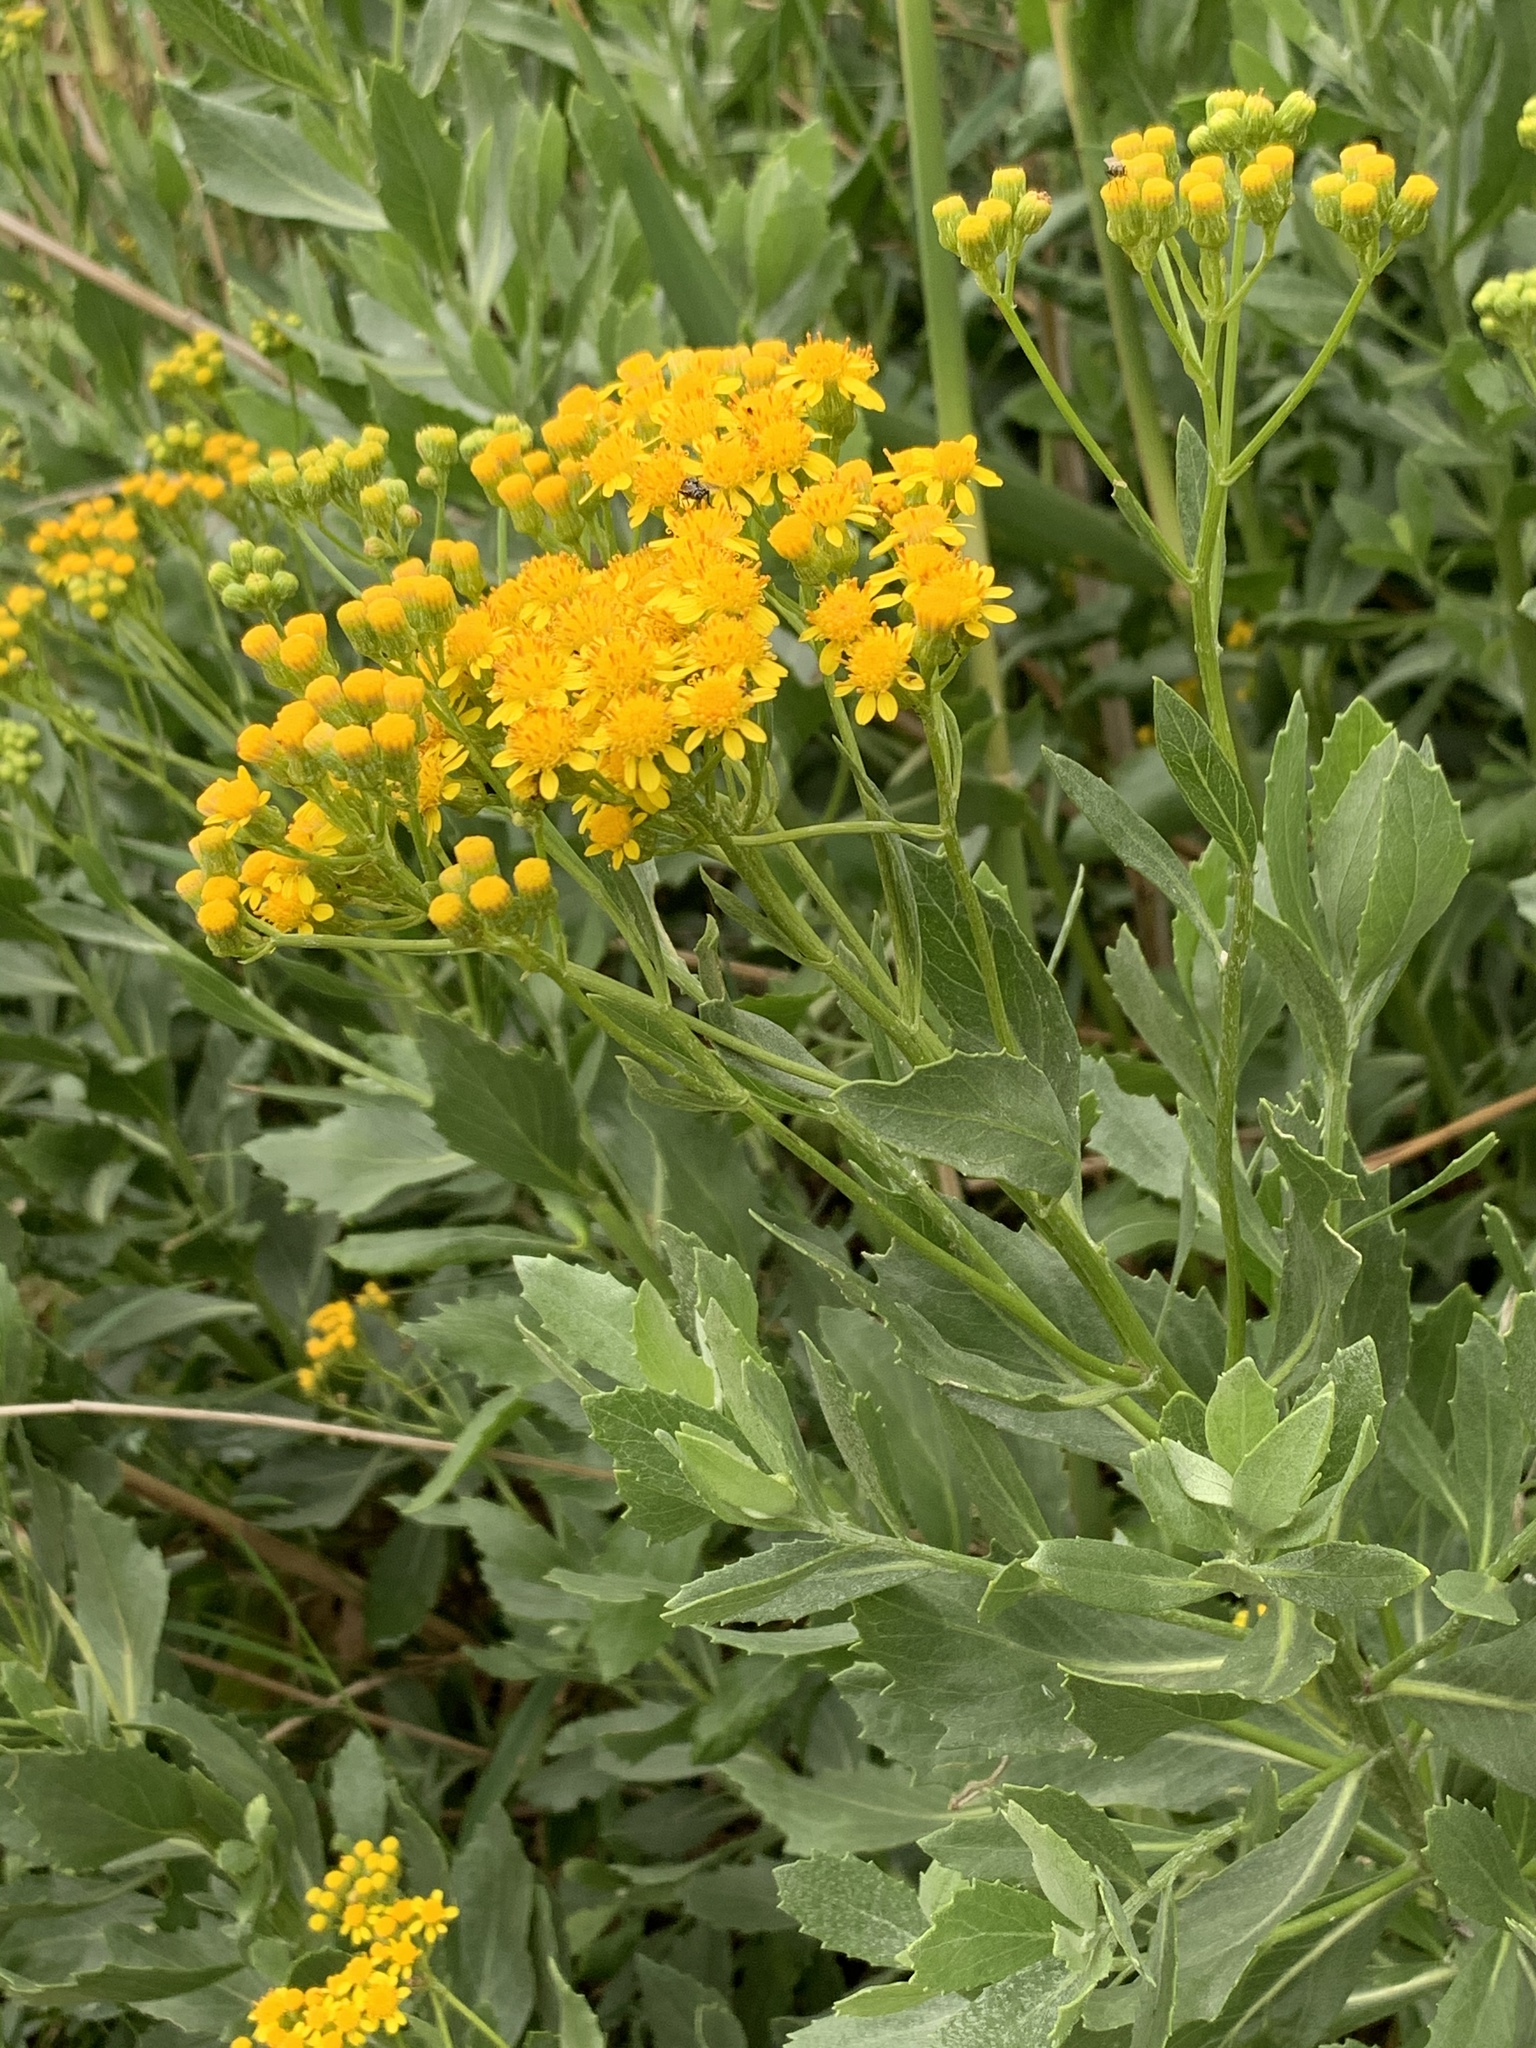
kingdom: Plantae
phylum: Tracheophyta
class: Magnoliopsida
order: Asterales
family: Asteraceae
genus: Senecio
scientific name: Senecio halimifolius
